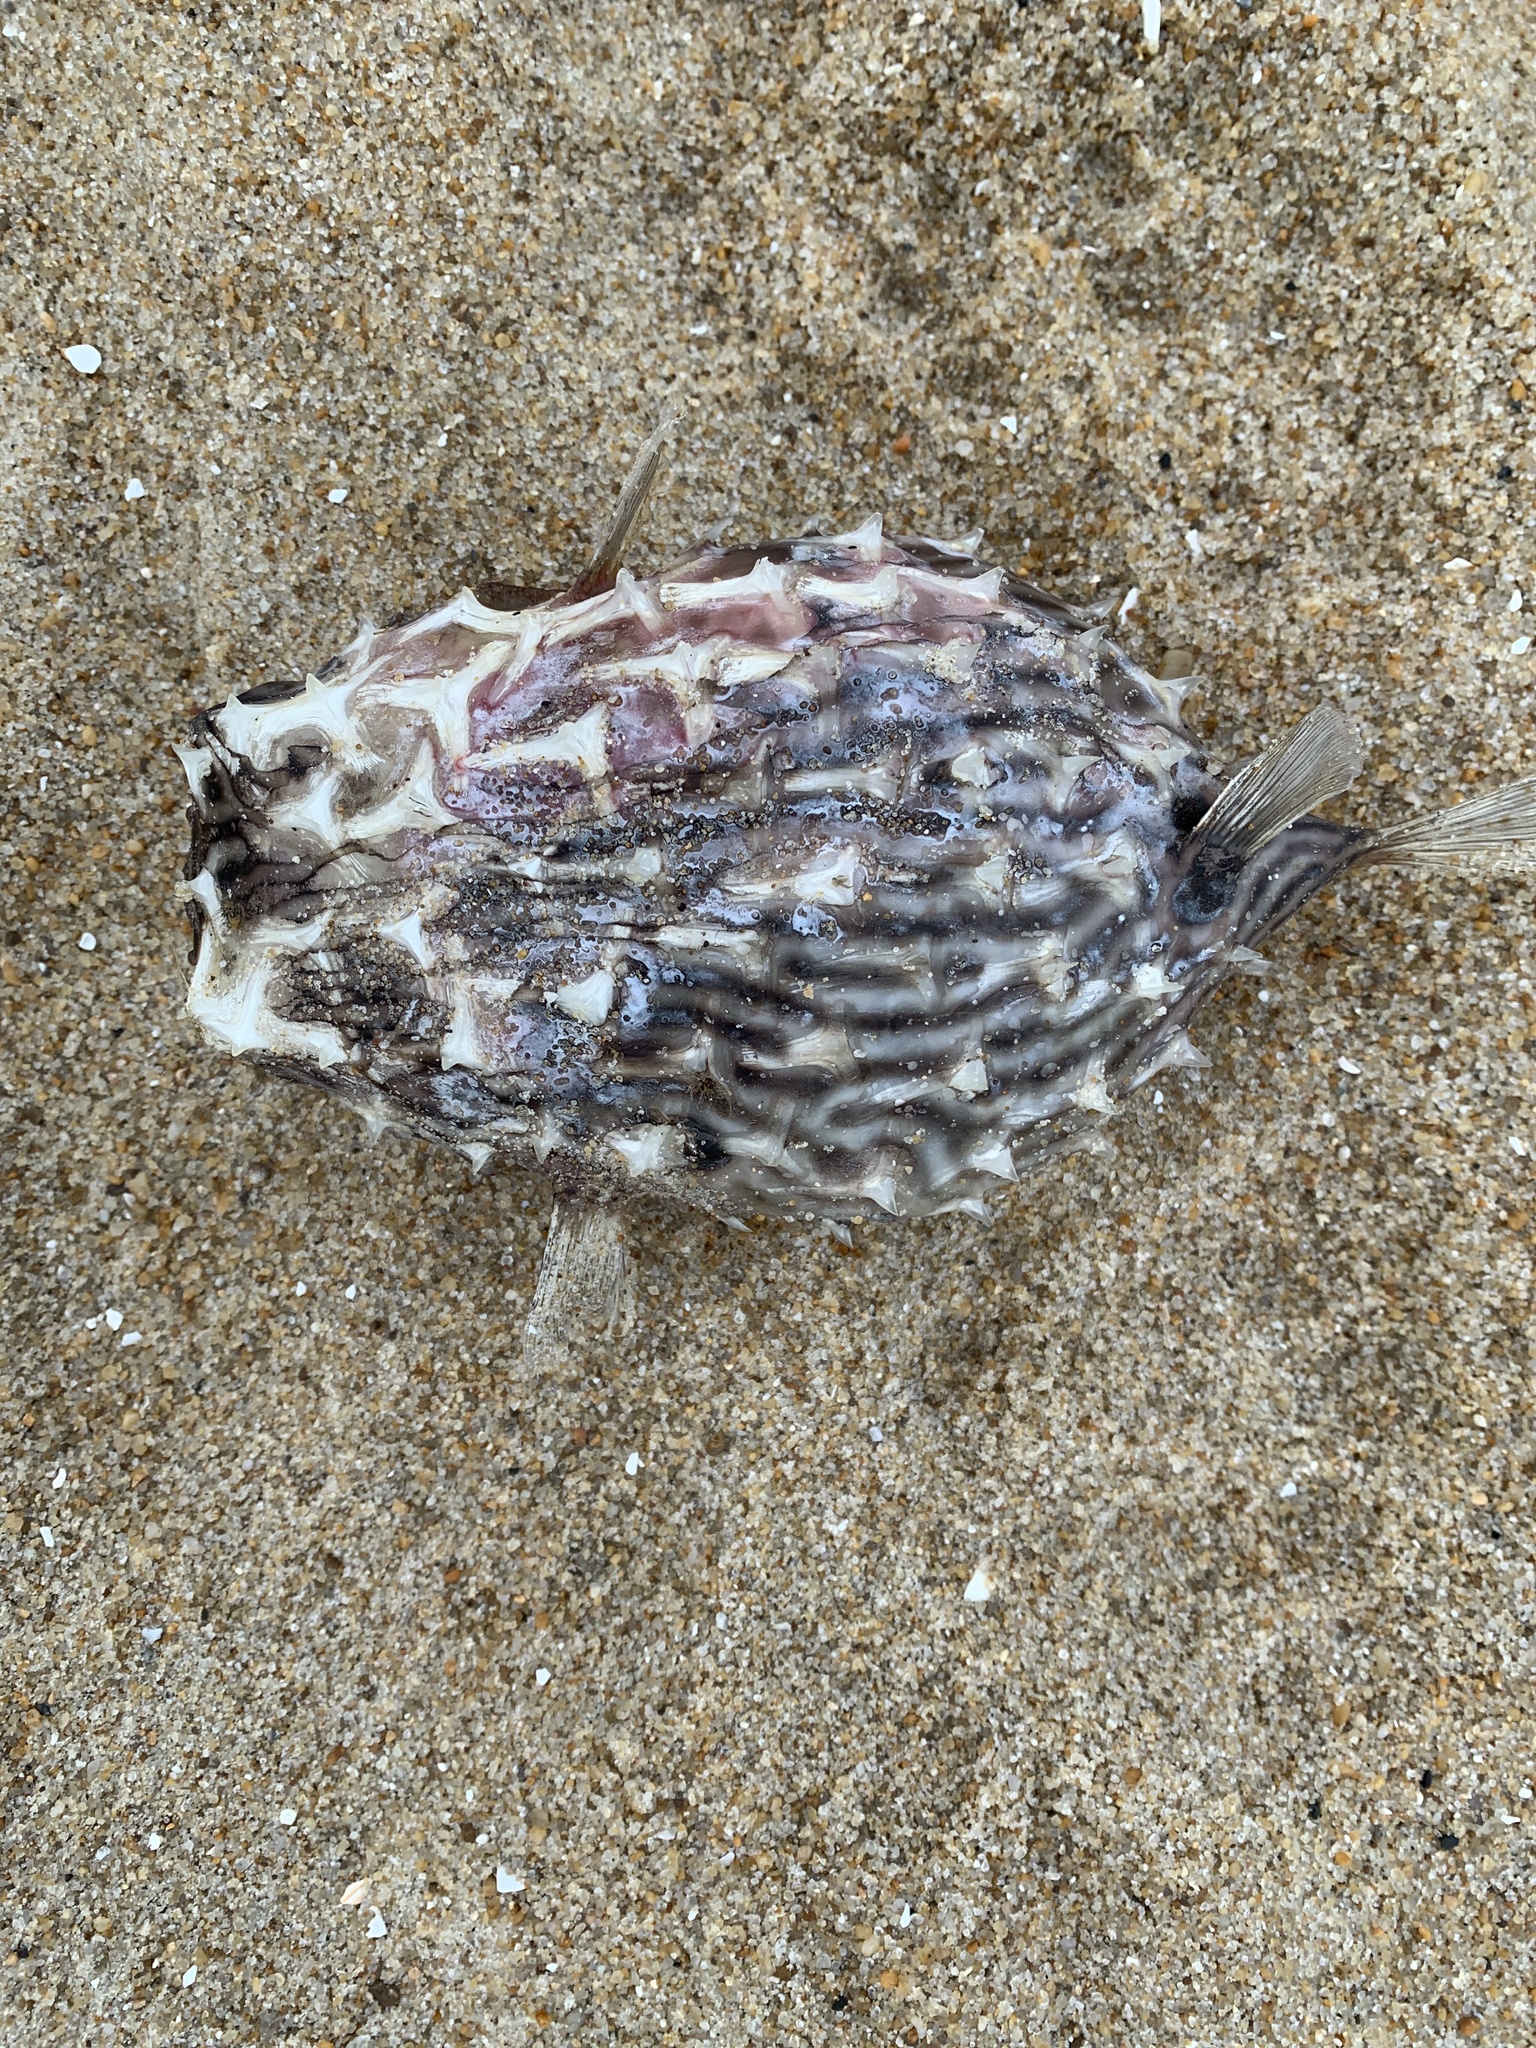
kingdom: Animalia
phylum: Chordata
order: Tetraodontiformes
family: Diodontidae
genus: Chilomycterus
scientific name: Chilomycterus schoepfii
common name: Striped burrfish
